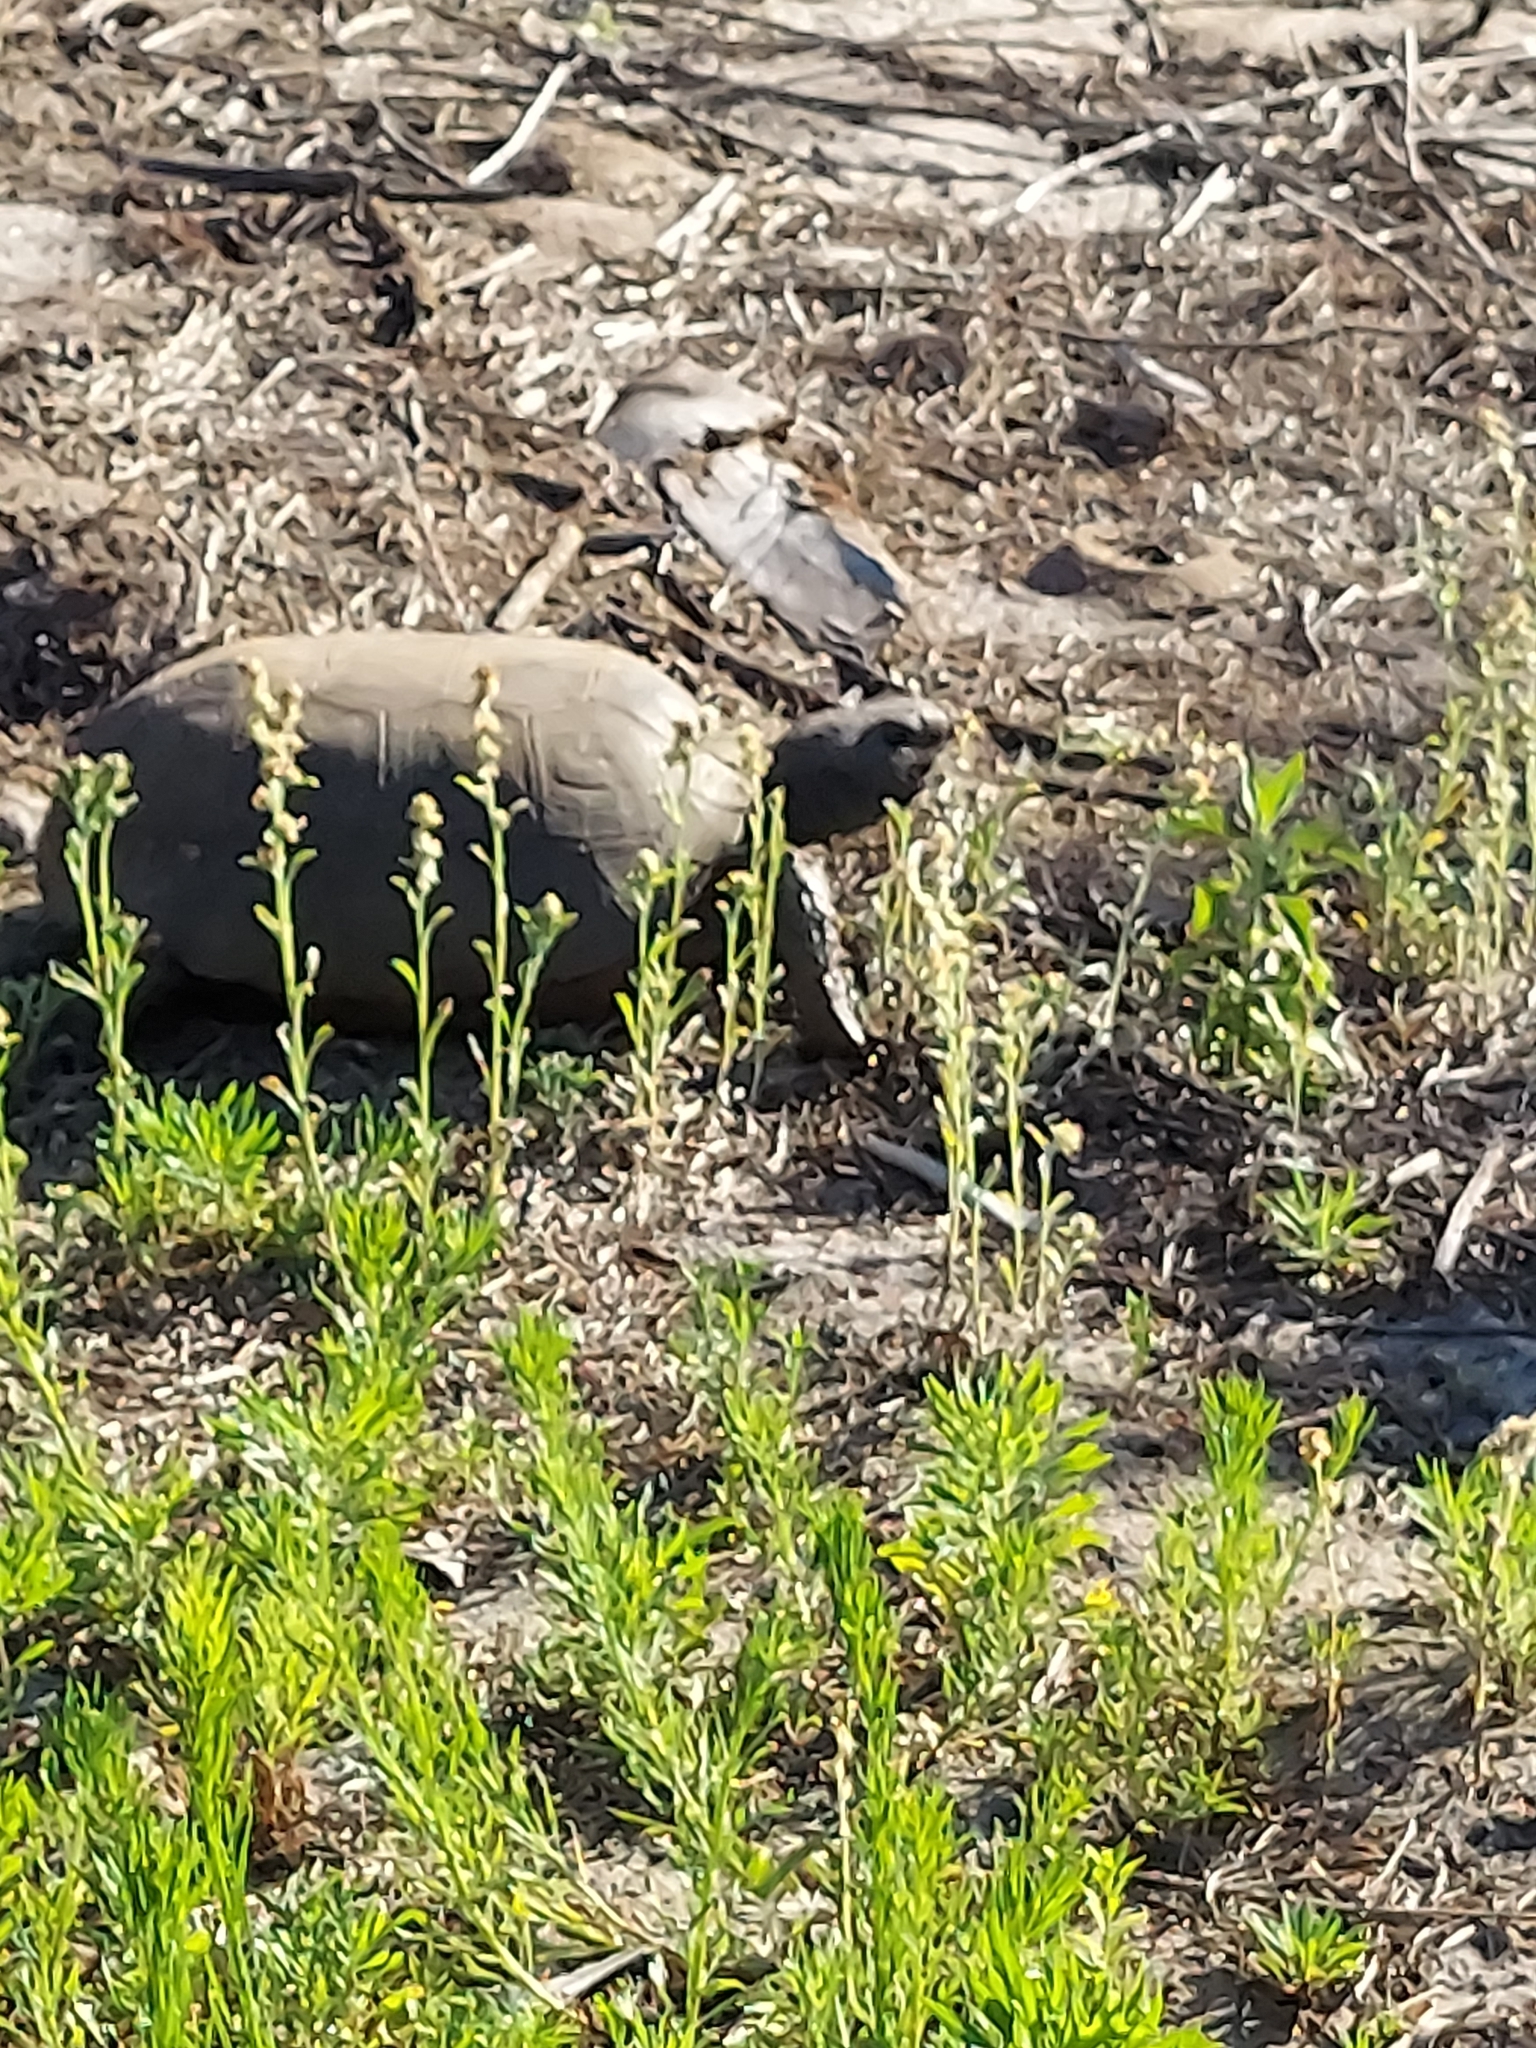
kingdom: Animalia
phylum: Chordata
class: Testudines
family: Testudinidae
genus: Gopherus
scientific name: Gopherus polyphemus
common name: Florida gopher tortoise
